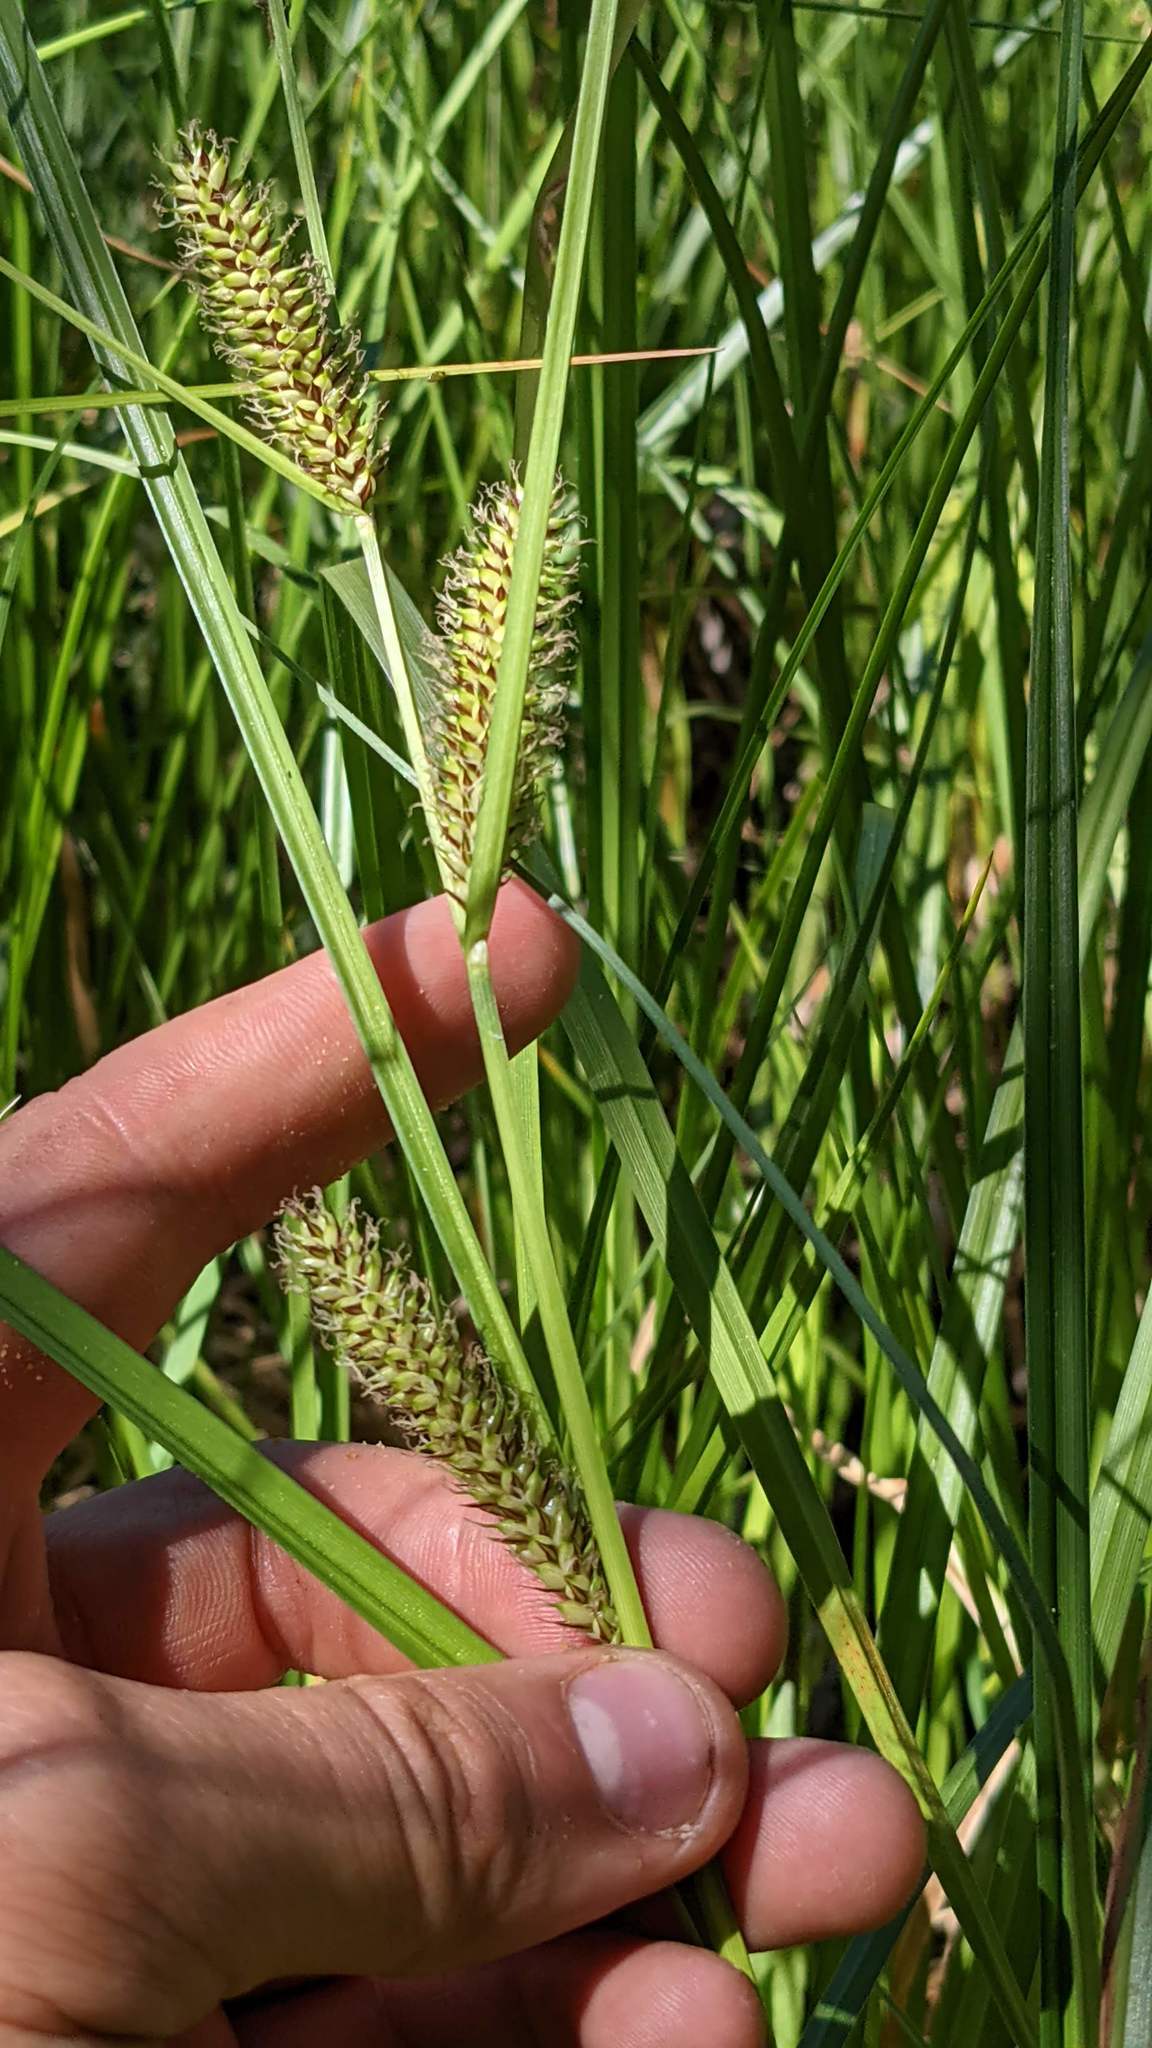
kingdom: Plantae
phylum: Tracheophyta
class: Liliopsida
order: Poales
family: Cyperaceae
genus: Carex
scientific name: Carex utriculata
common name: Beaked sedge
